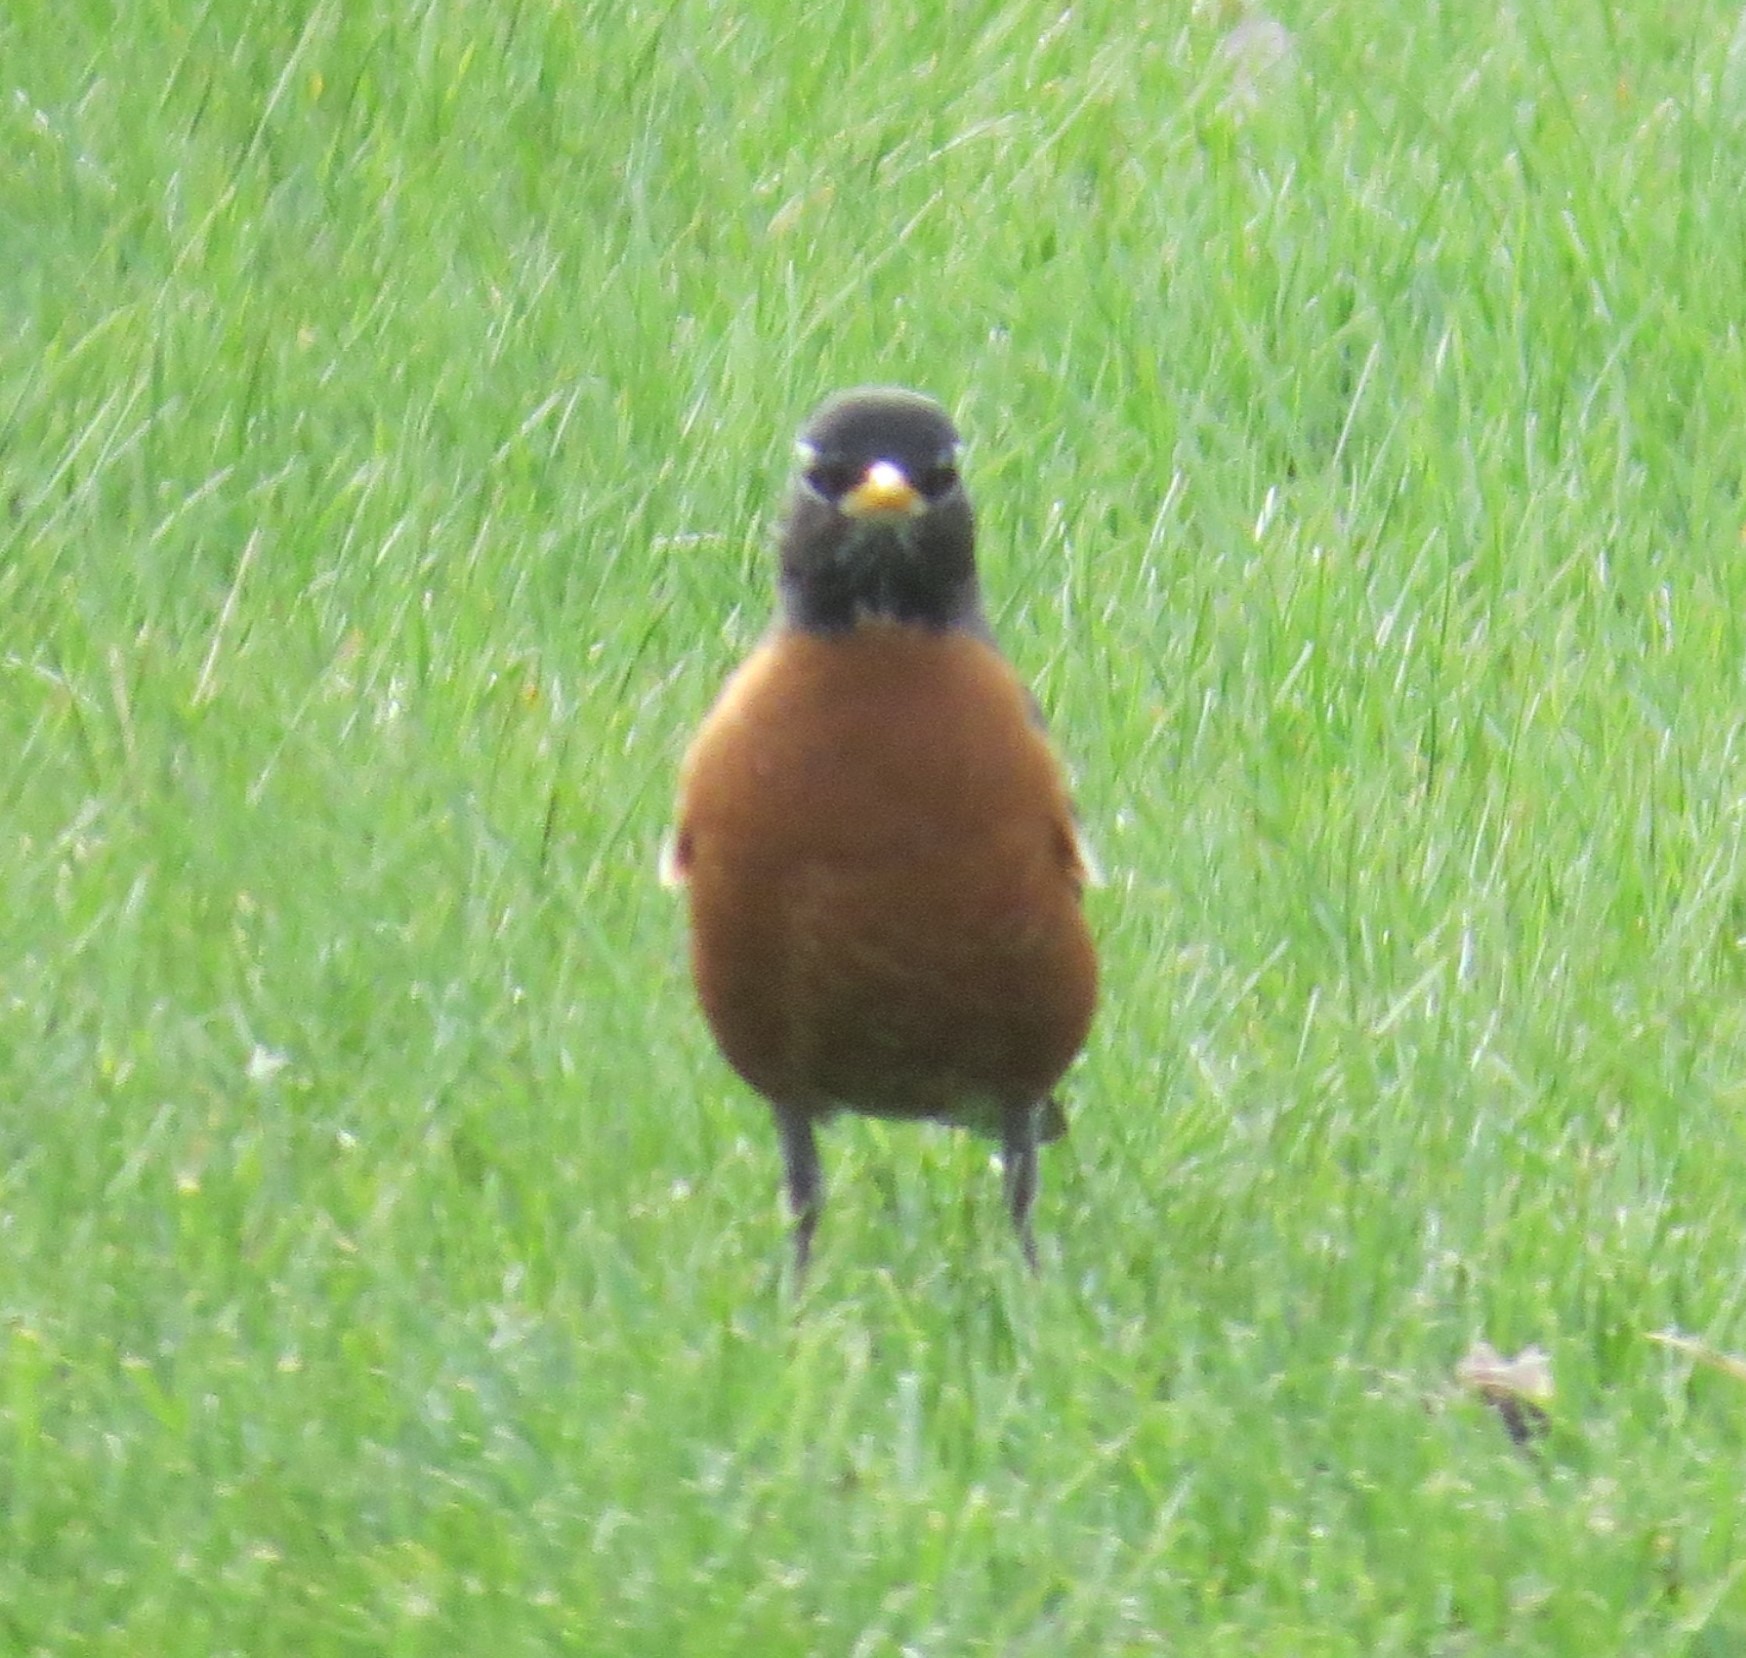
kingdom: Animalia
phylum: Chordata
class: Aves
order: Passeriformes
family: Turdidae
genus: Turdus
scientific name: Turdus migratorius
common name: American robin
